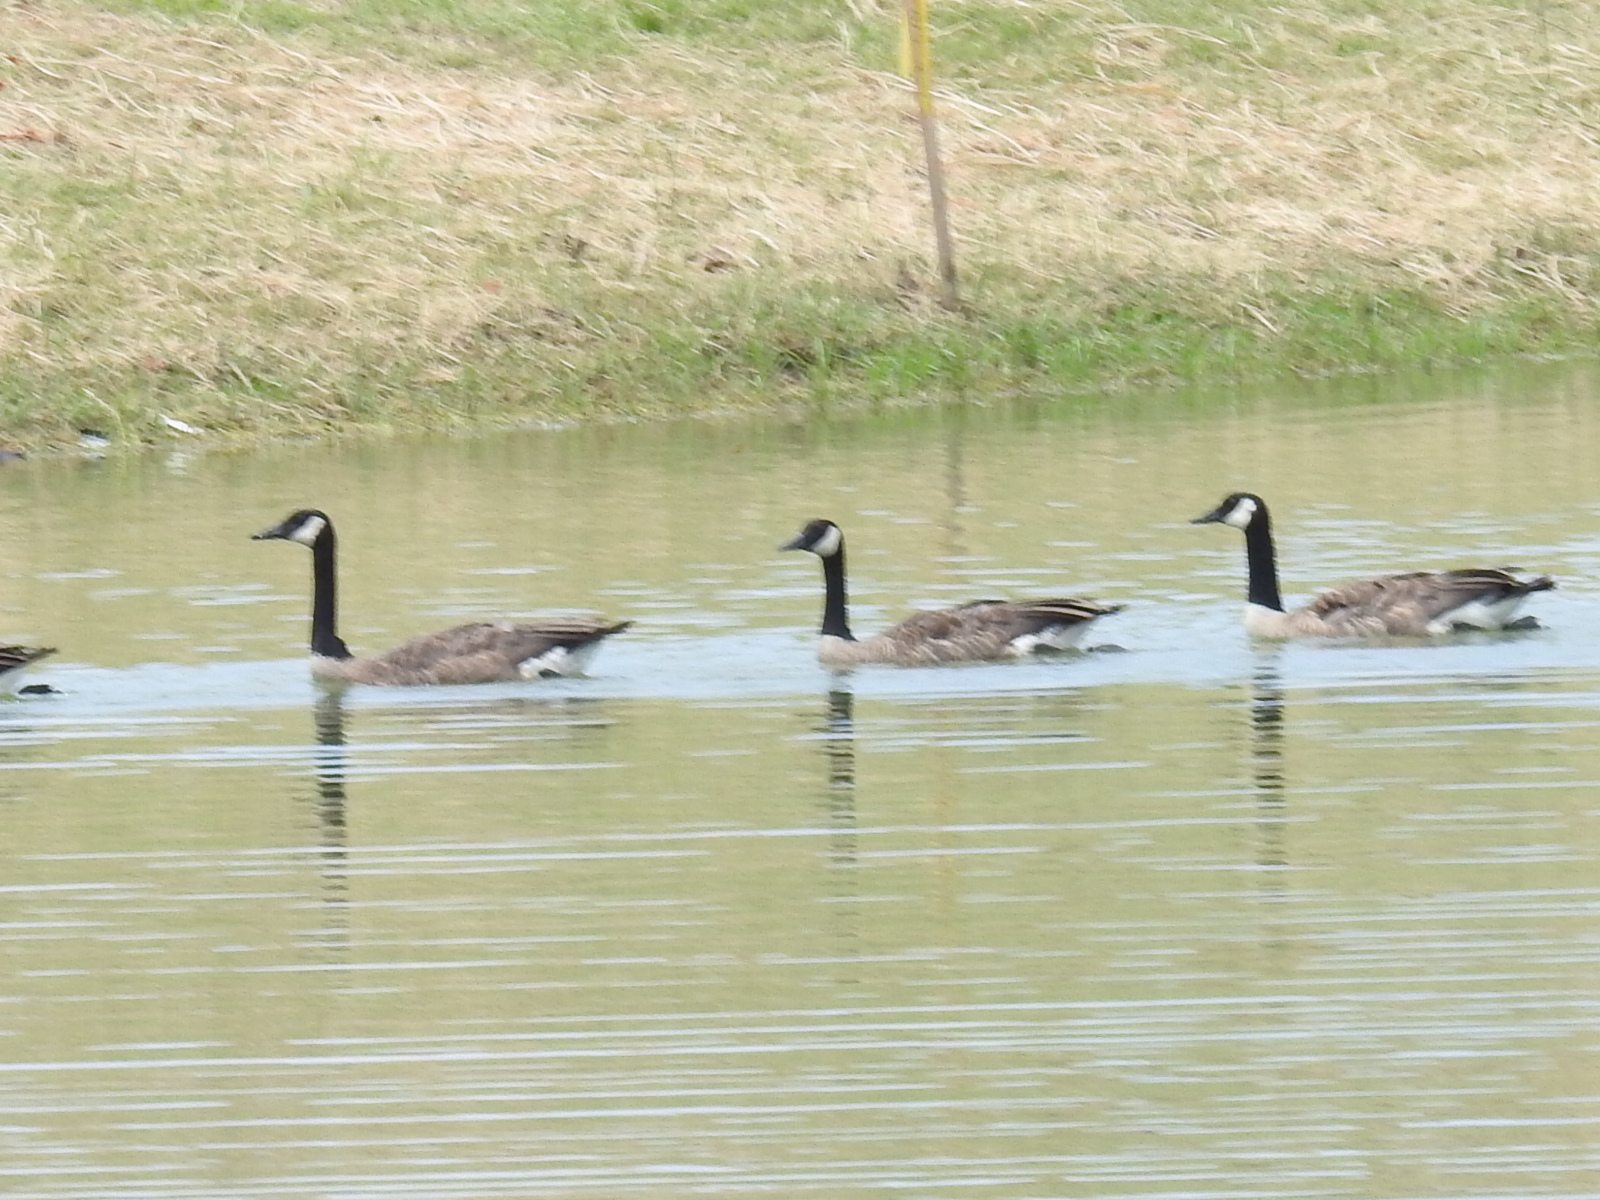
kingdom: Animalia
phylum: Chordata
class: Aves
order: Anseriformes
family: Anatidae
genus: Branta
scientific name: Branta canadensis
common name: Canada goose
